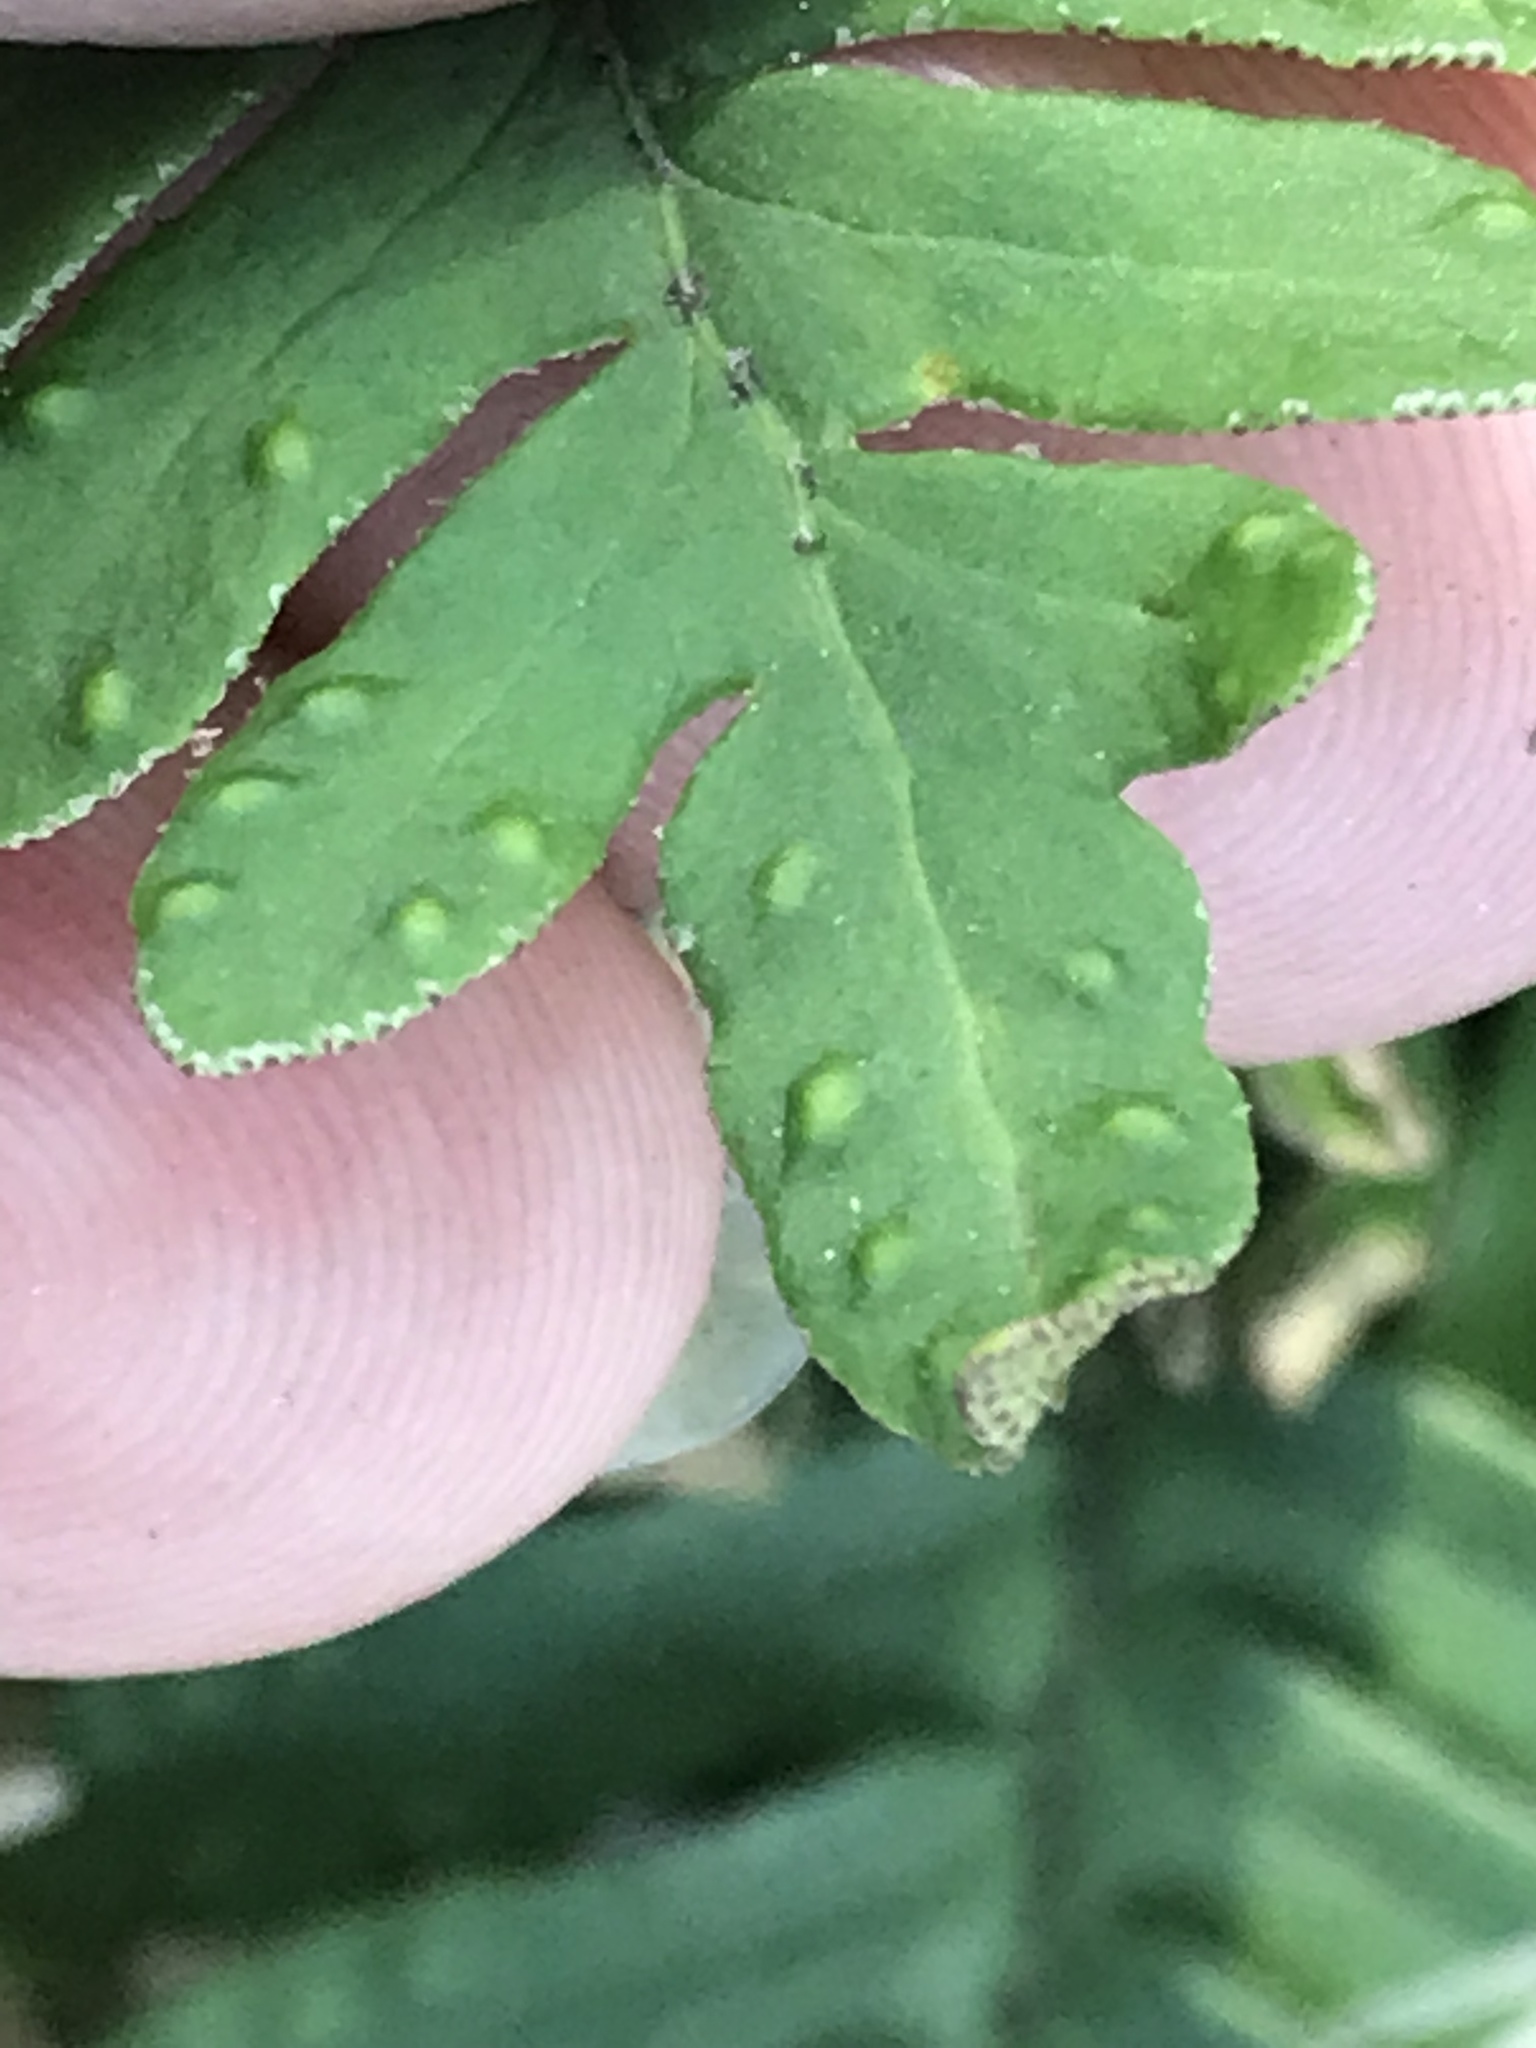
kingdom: Plantae
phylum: Tracheophyta
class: Polypodiopsida
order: Polypodiales
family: Polypodiaceae
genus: Pleopeltis
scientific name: Pleopeltis michauxiana
